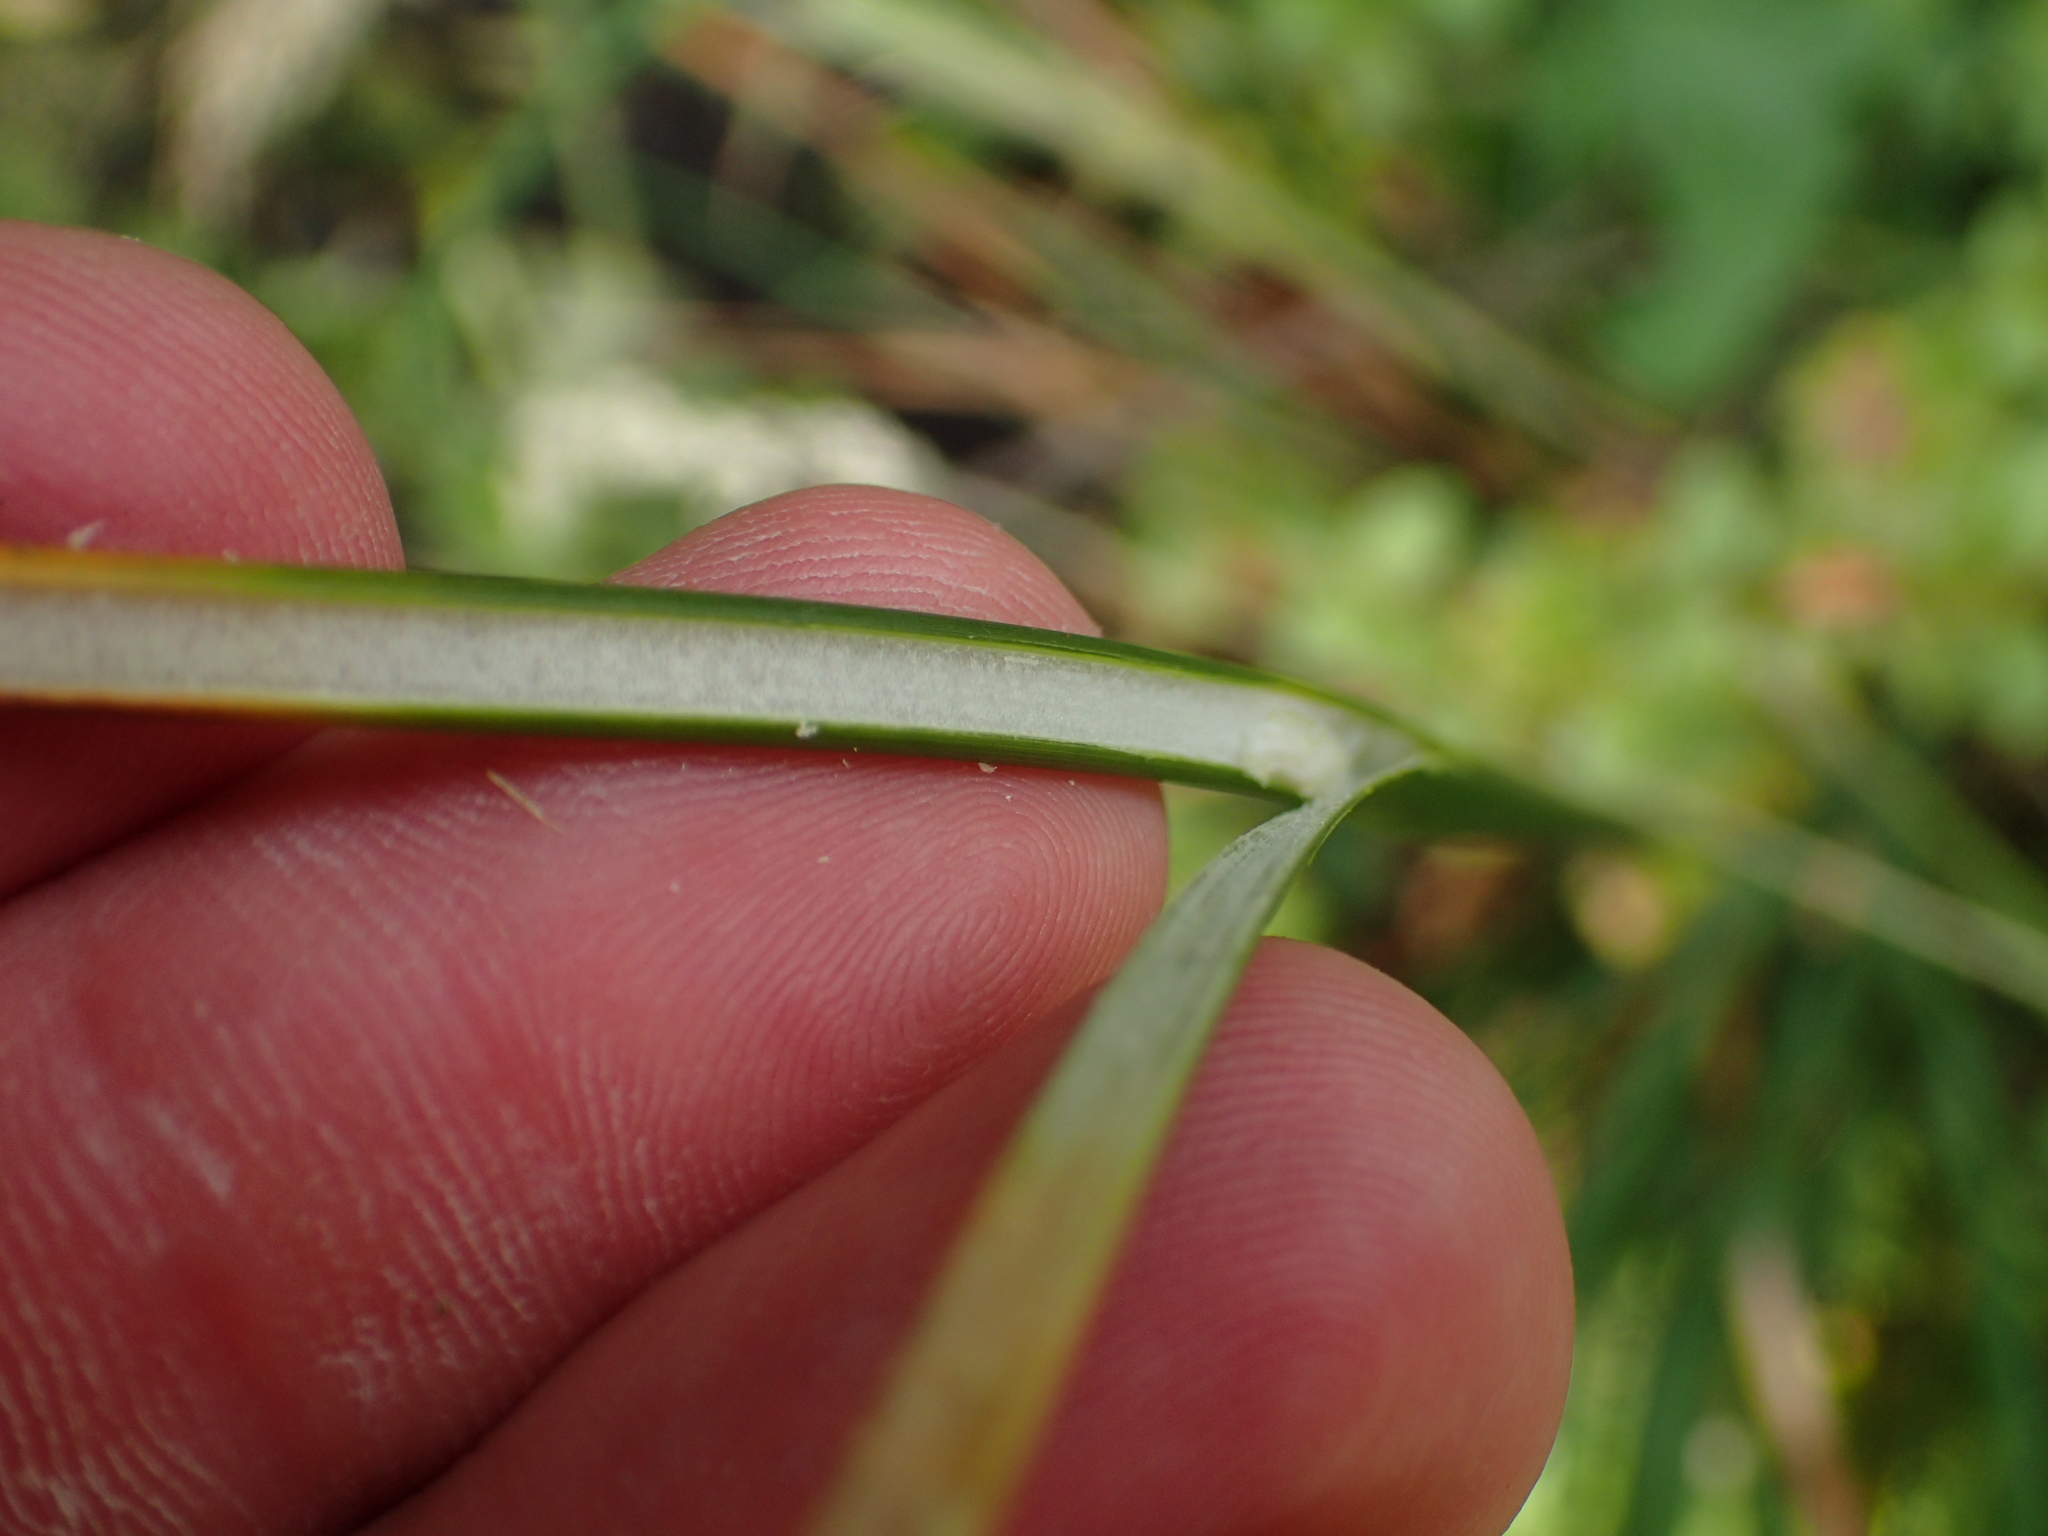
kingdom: Plantae
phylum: Tracheophyta
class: Liliopsida
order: Poales
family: Juncaceae
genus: Juncus
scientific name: Juncus effusus
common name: Soft rush
